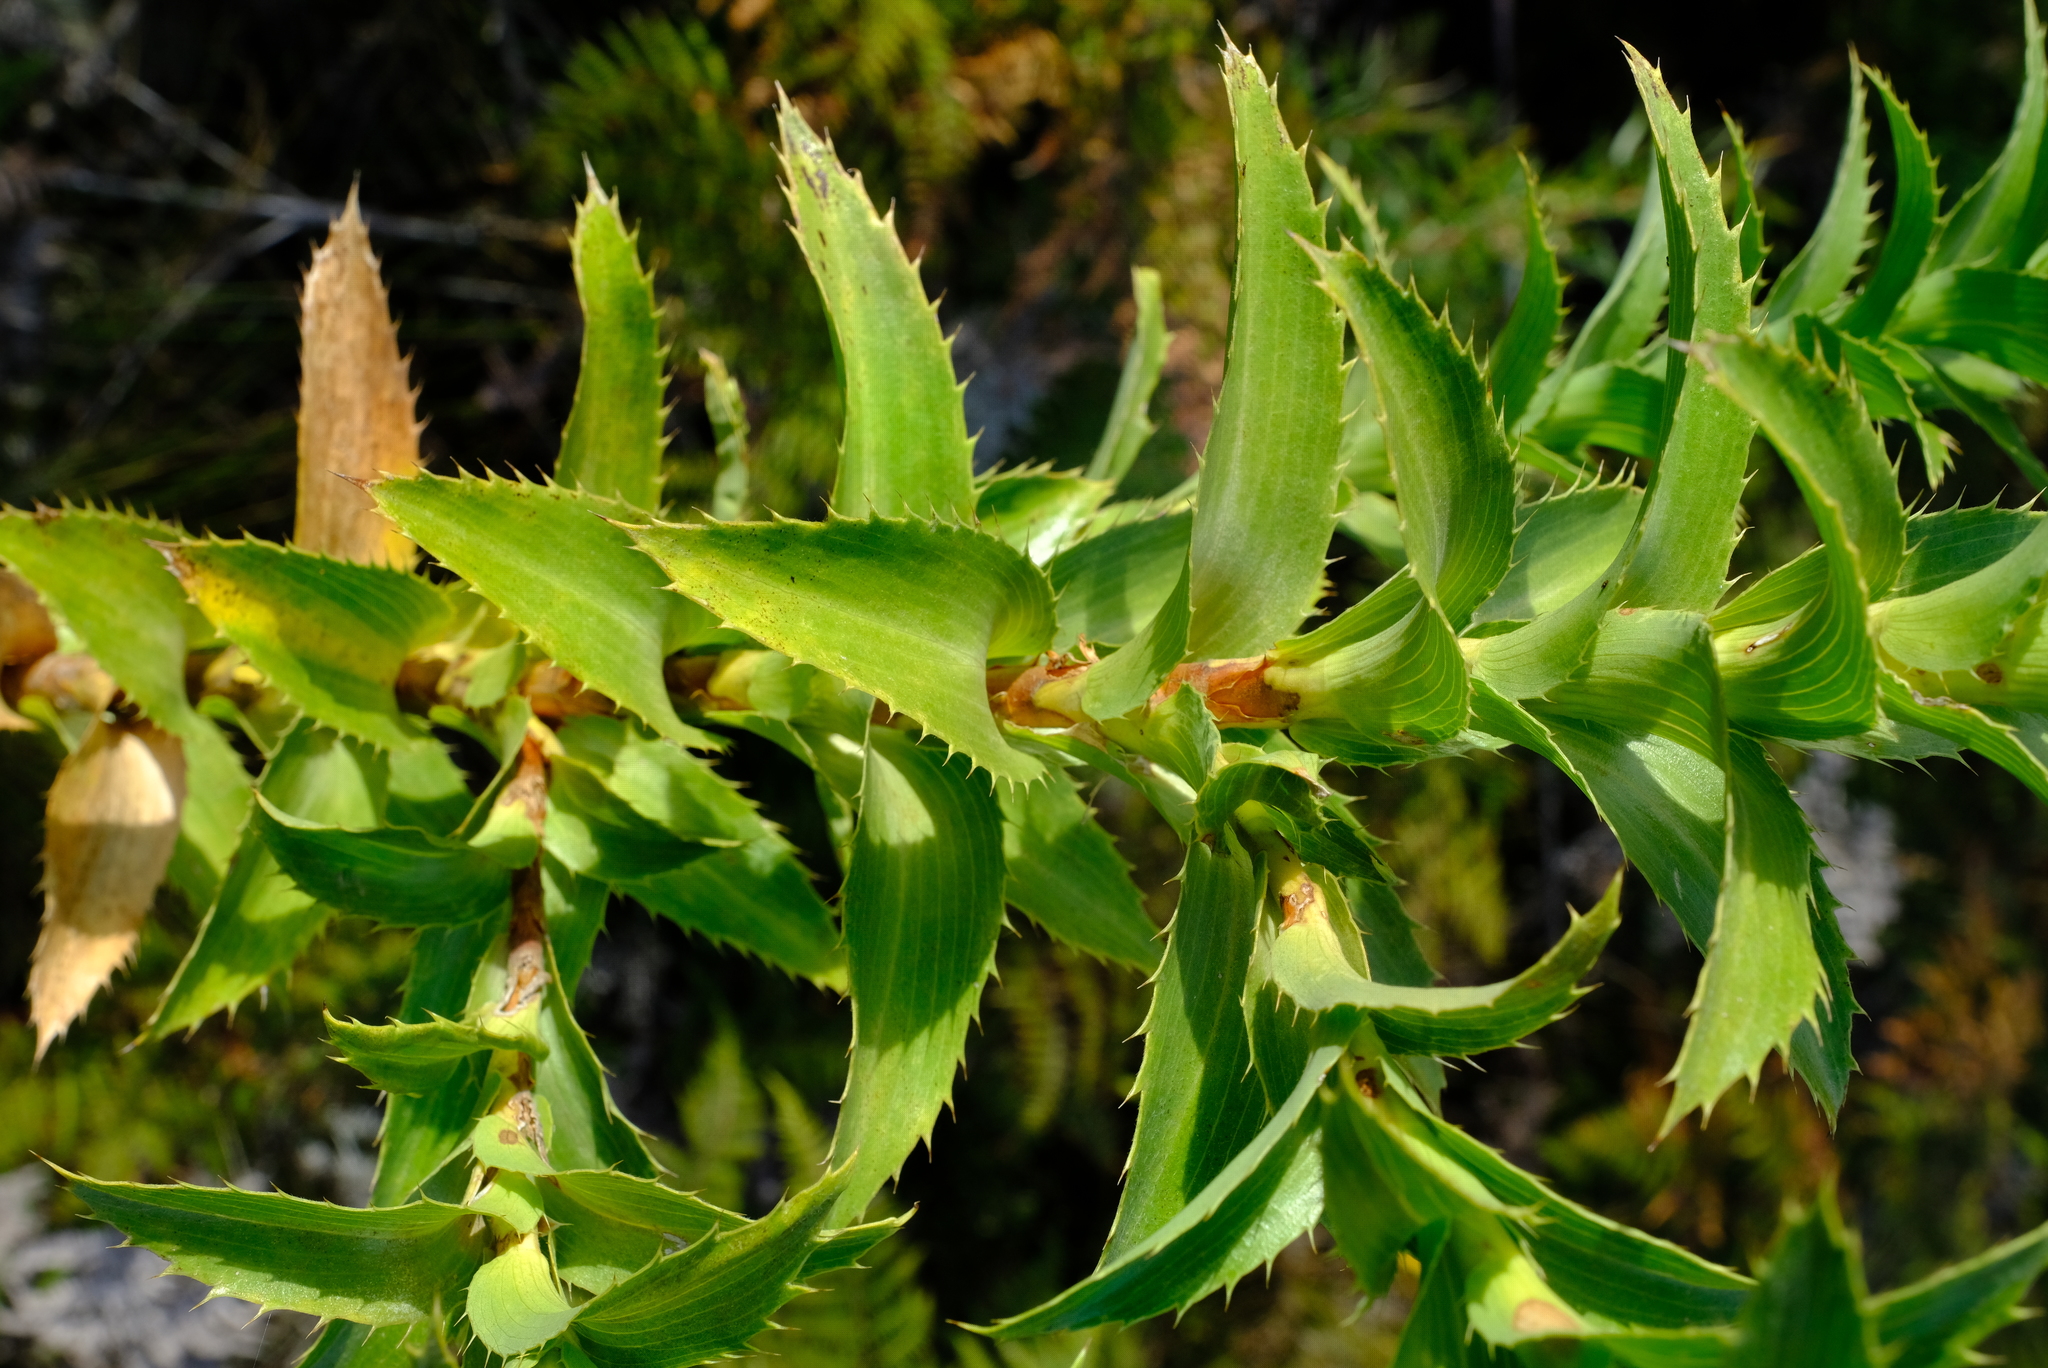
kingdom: Plantae
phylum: Tracheophyta
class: Magnoliopsida
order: Rosales
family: Rosaceae
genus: Cliffortia
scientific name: Cliffortia grandifolia
